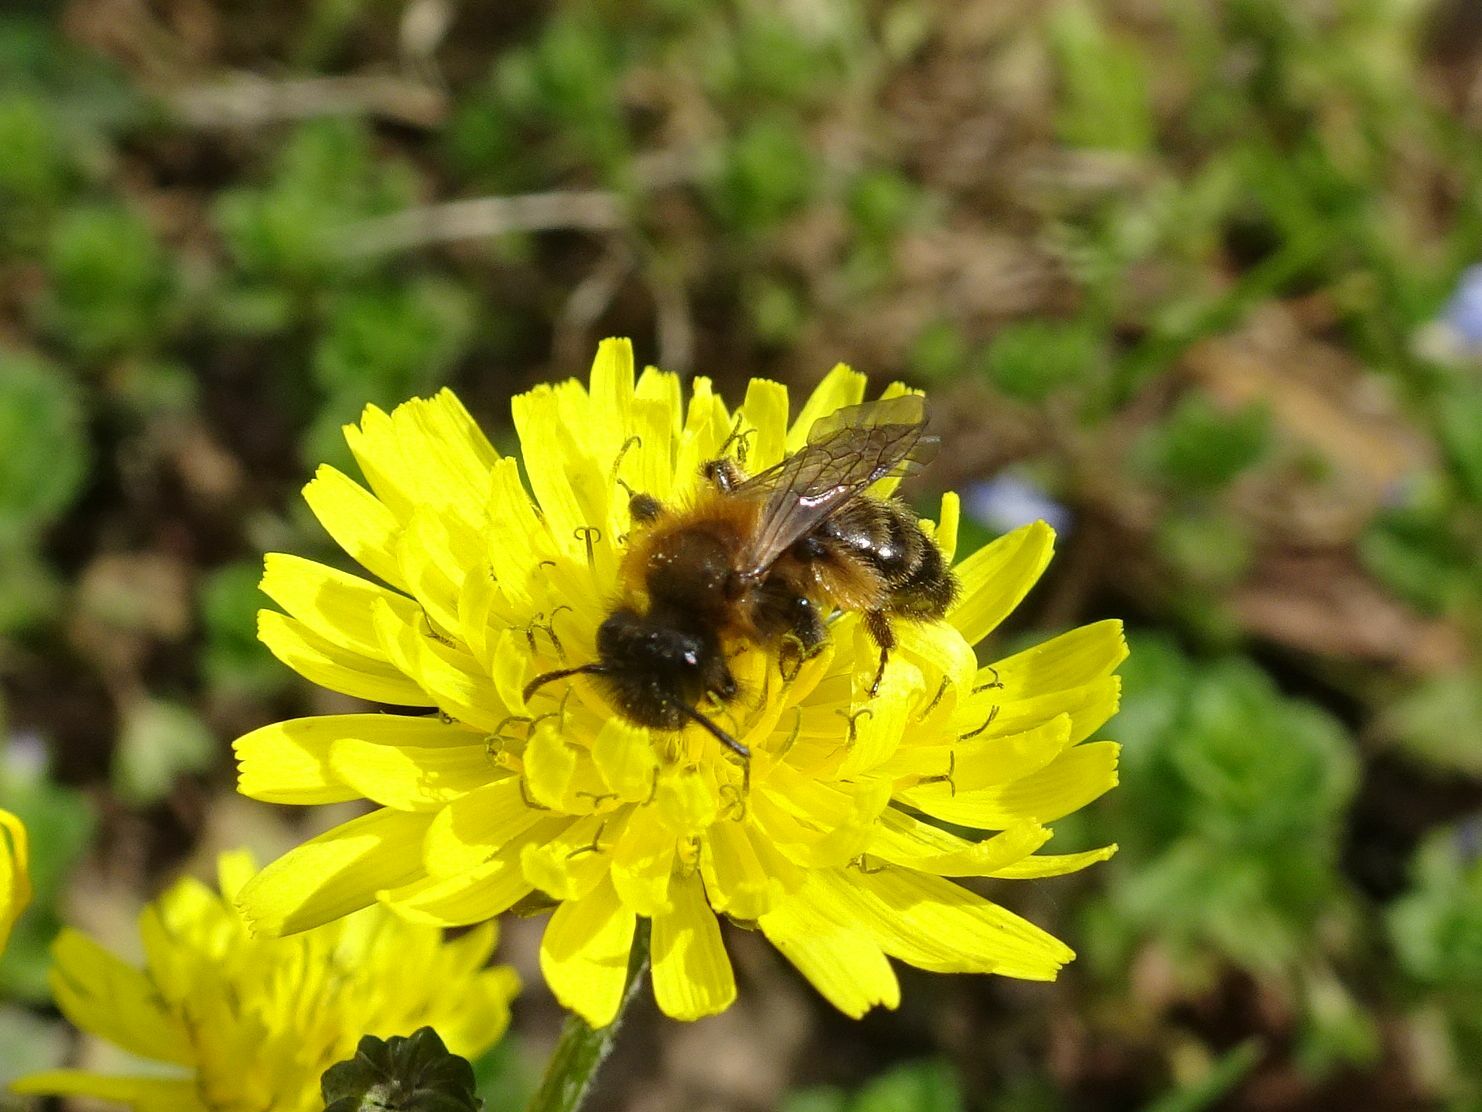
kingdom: Animalia
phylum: Arthropoda
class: Insecta
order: Hymenoptera
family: Andrenidae
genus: Andrena
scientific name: Andrena bicolor
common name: Gwynne's mining bee
